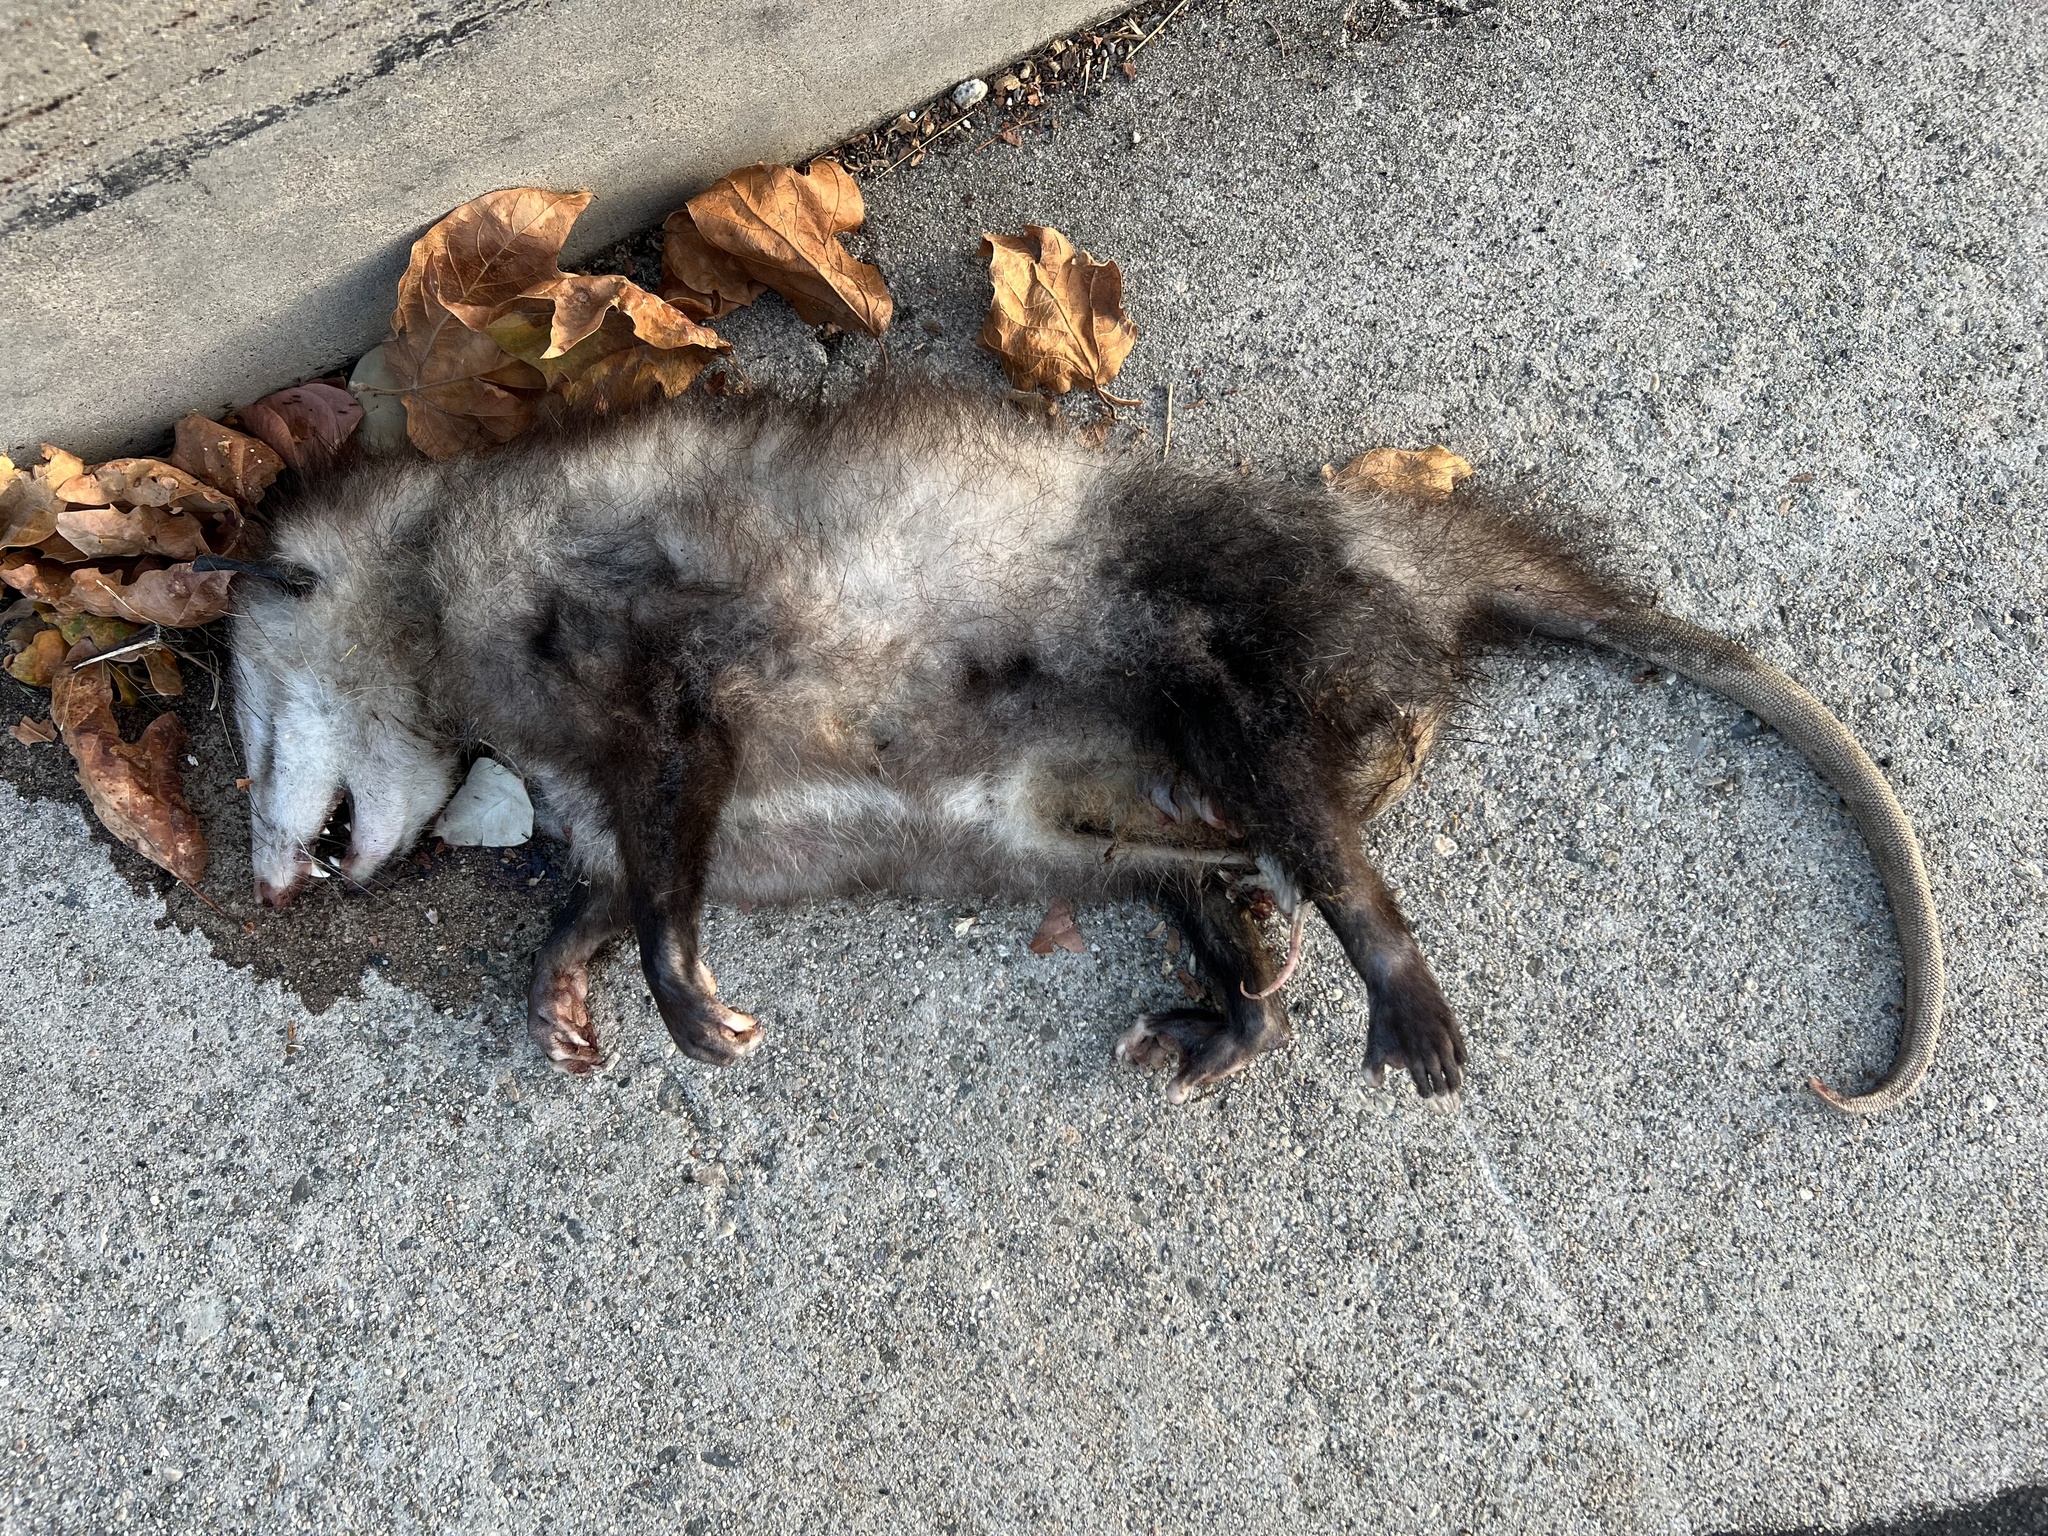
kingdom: Animalia
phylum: Chordata
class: Mammalia
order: Didelphimorphia
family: Didelphidae
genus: Didelphis
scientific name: Didelphis virginiana
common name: Virginia opossum
